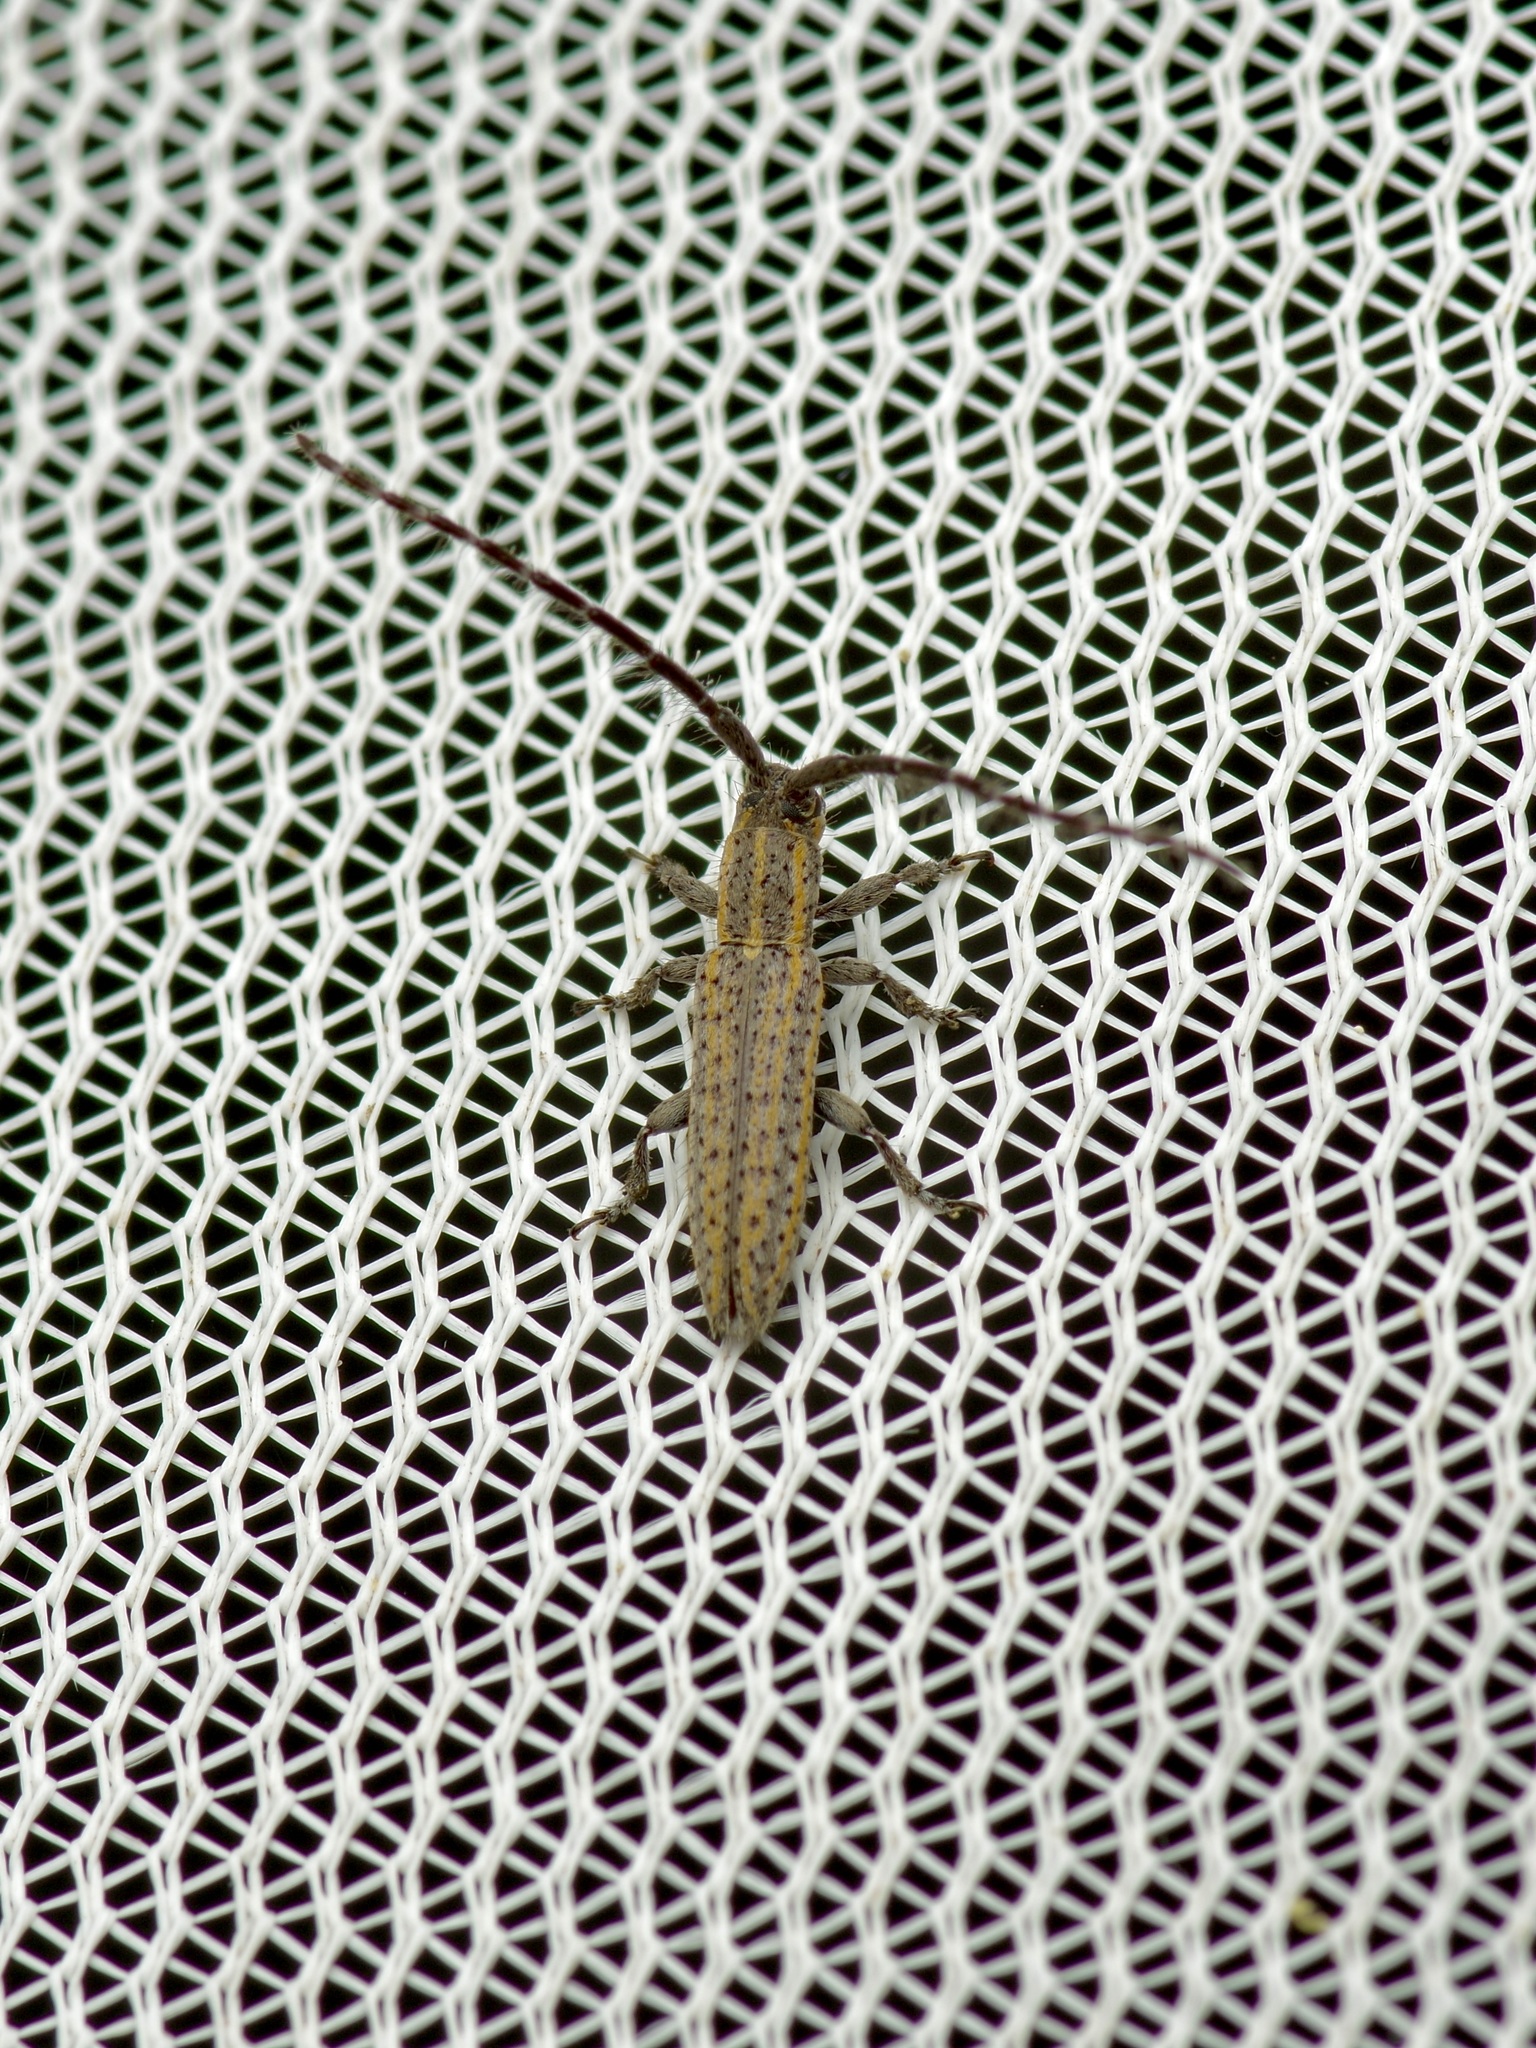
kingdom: Animalia
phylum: Arthropoda
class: Insecta
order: Coleoptera
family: Cerambycidae
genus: Dorcasta
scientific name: Dorcasta cinerea
